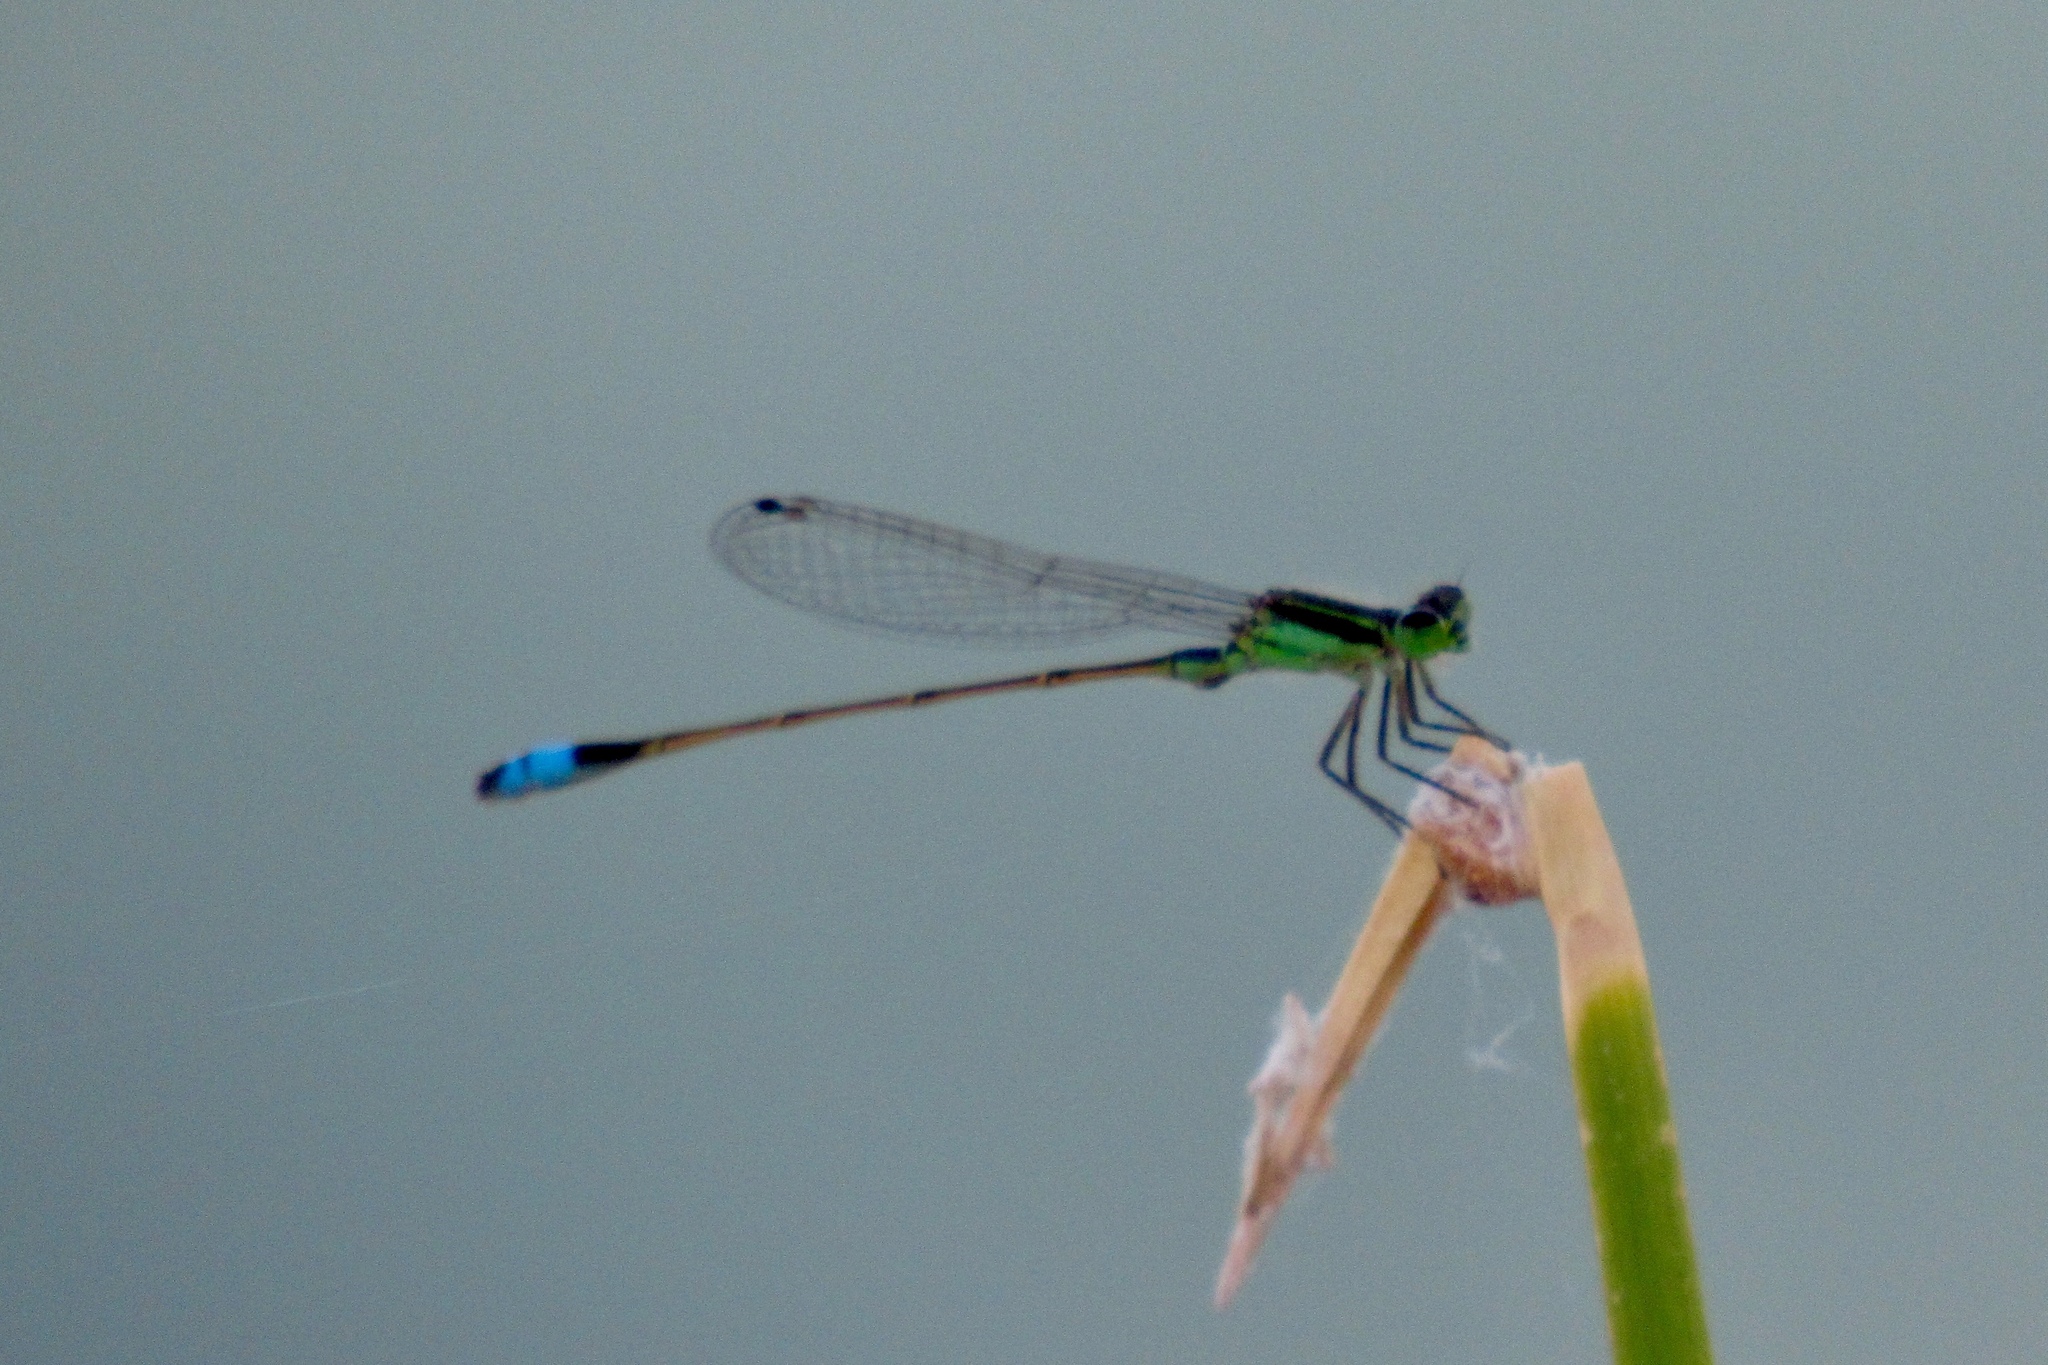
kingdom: Animalia
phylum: Arthropoda
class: Insecta
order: Odonata
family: Coenagrionidae
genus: Ischnura
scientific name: Ischnura ramburii
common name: Rambur's forktail
